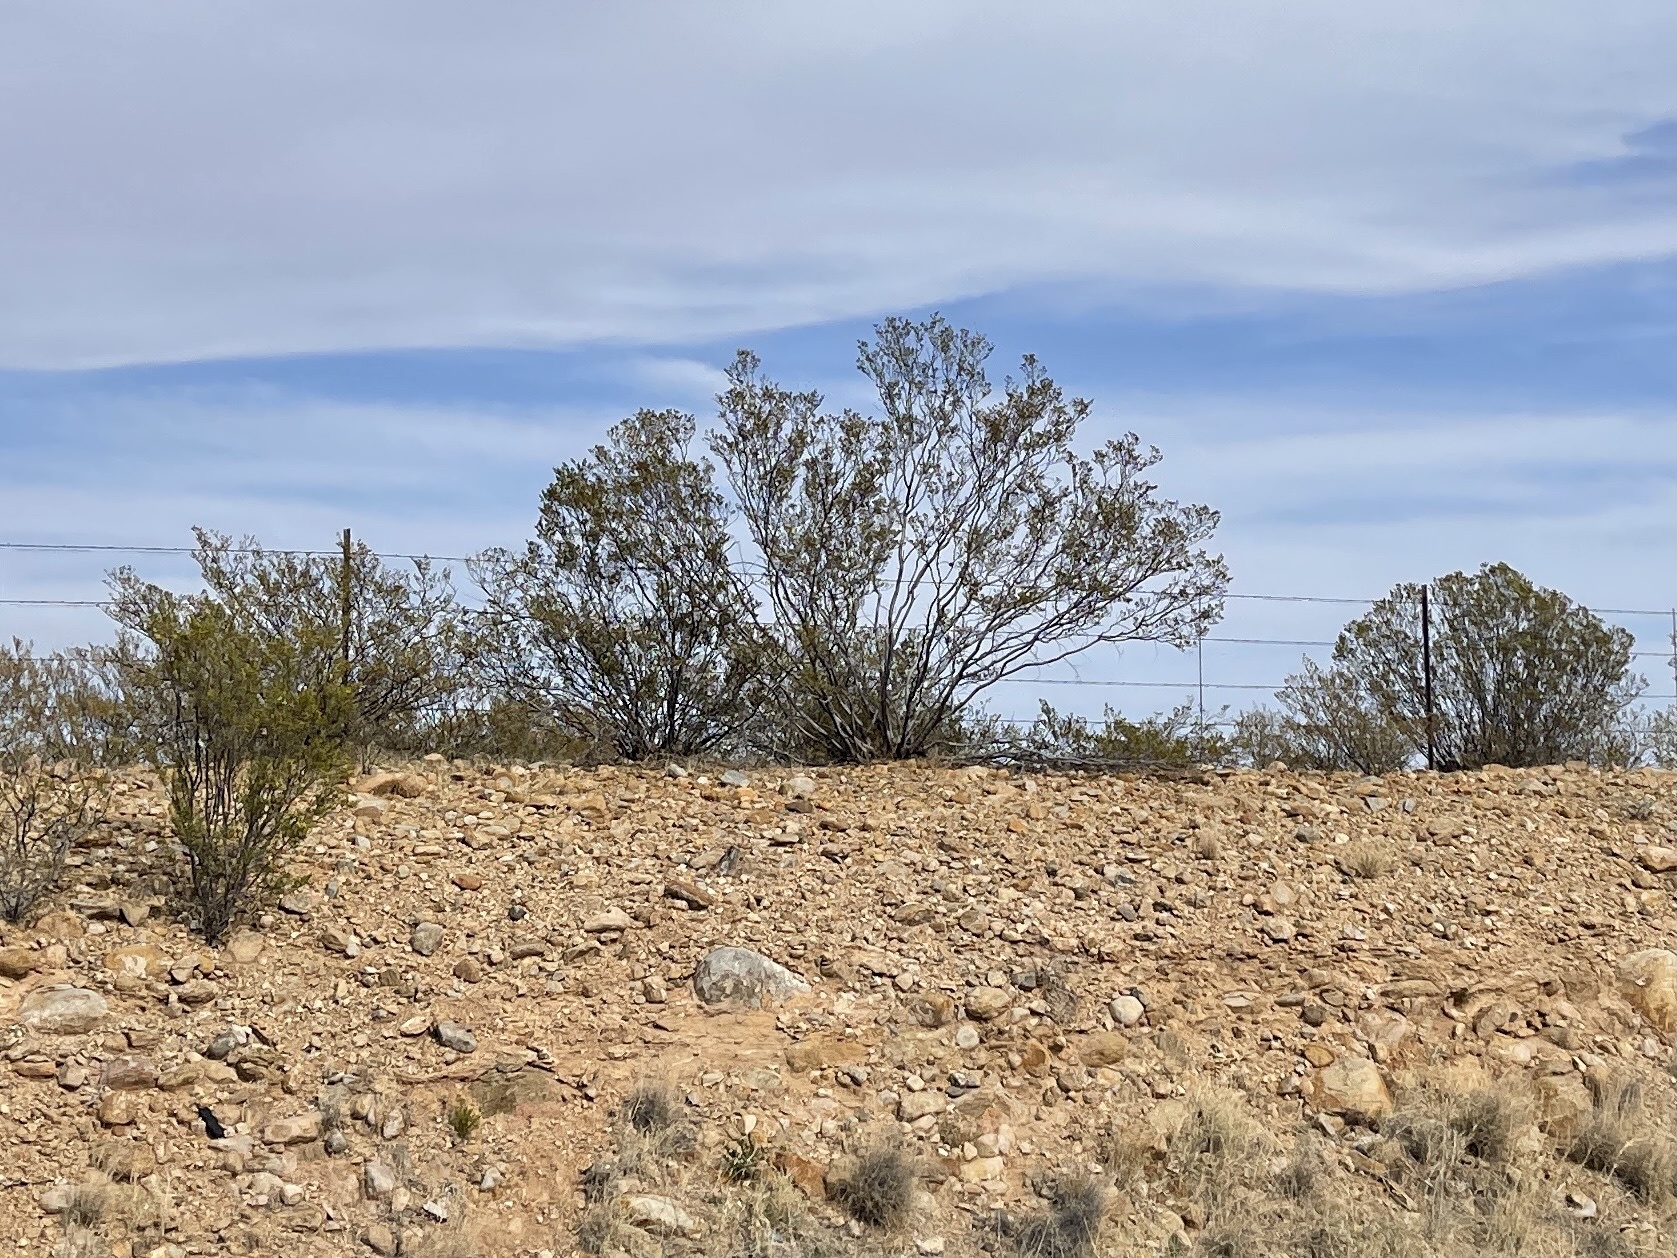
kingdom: Plantae
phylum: Tracheophyta
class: Magnoliopsida
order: Zygophyllales
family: Zygophyllaceae
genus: Larrea
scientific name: Larrea tridentata
